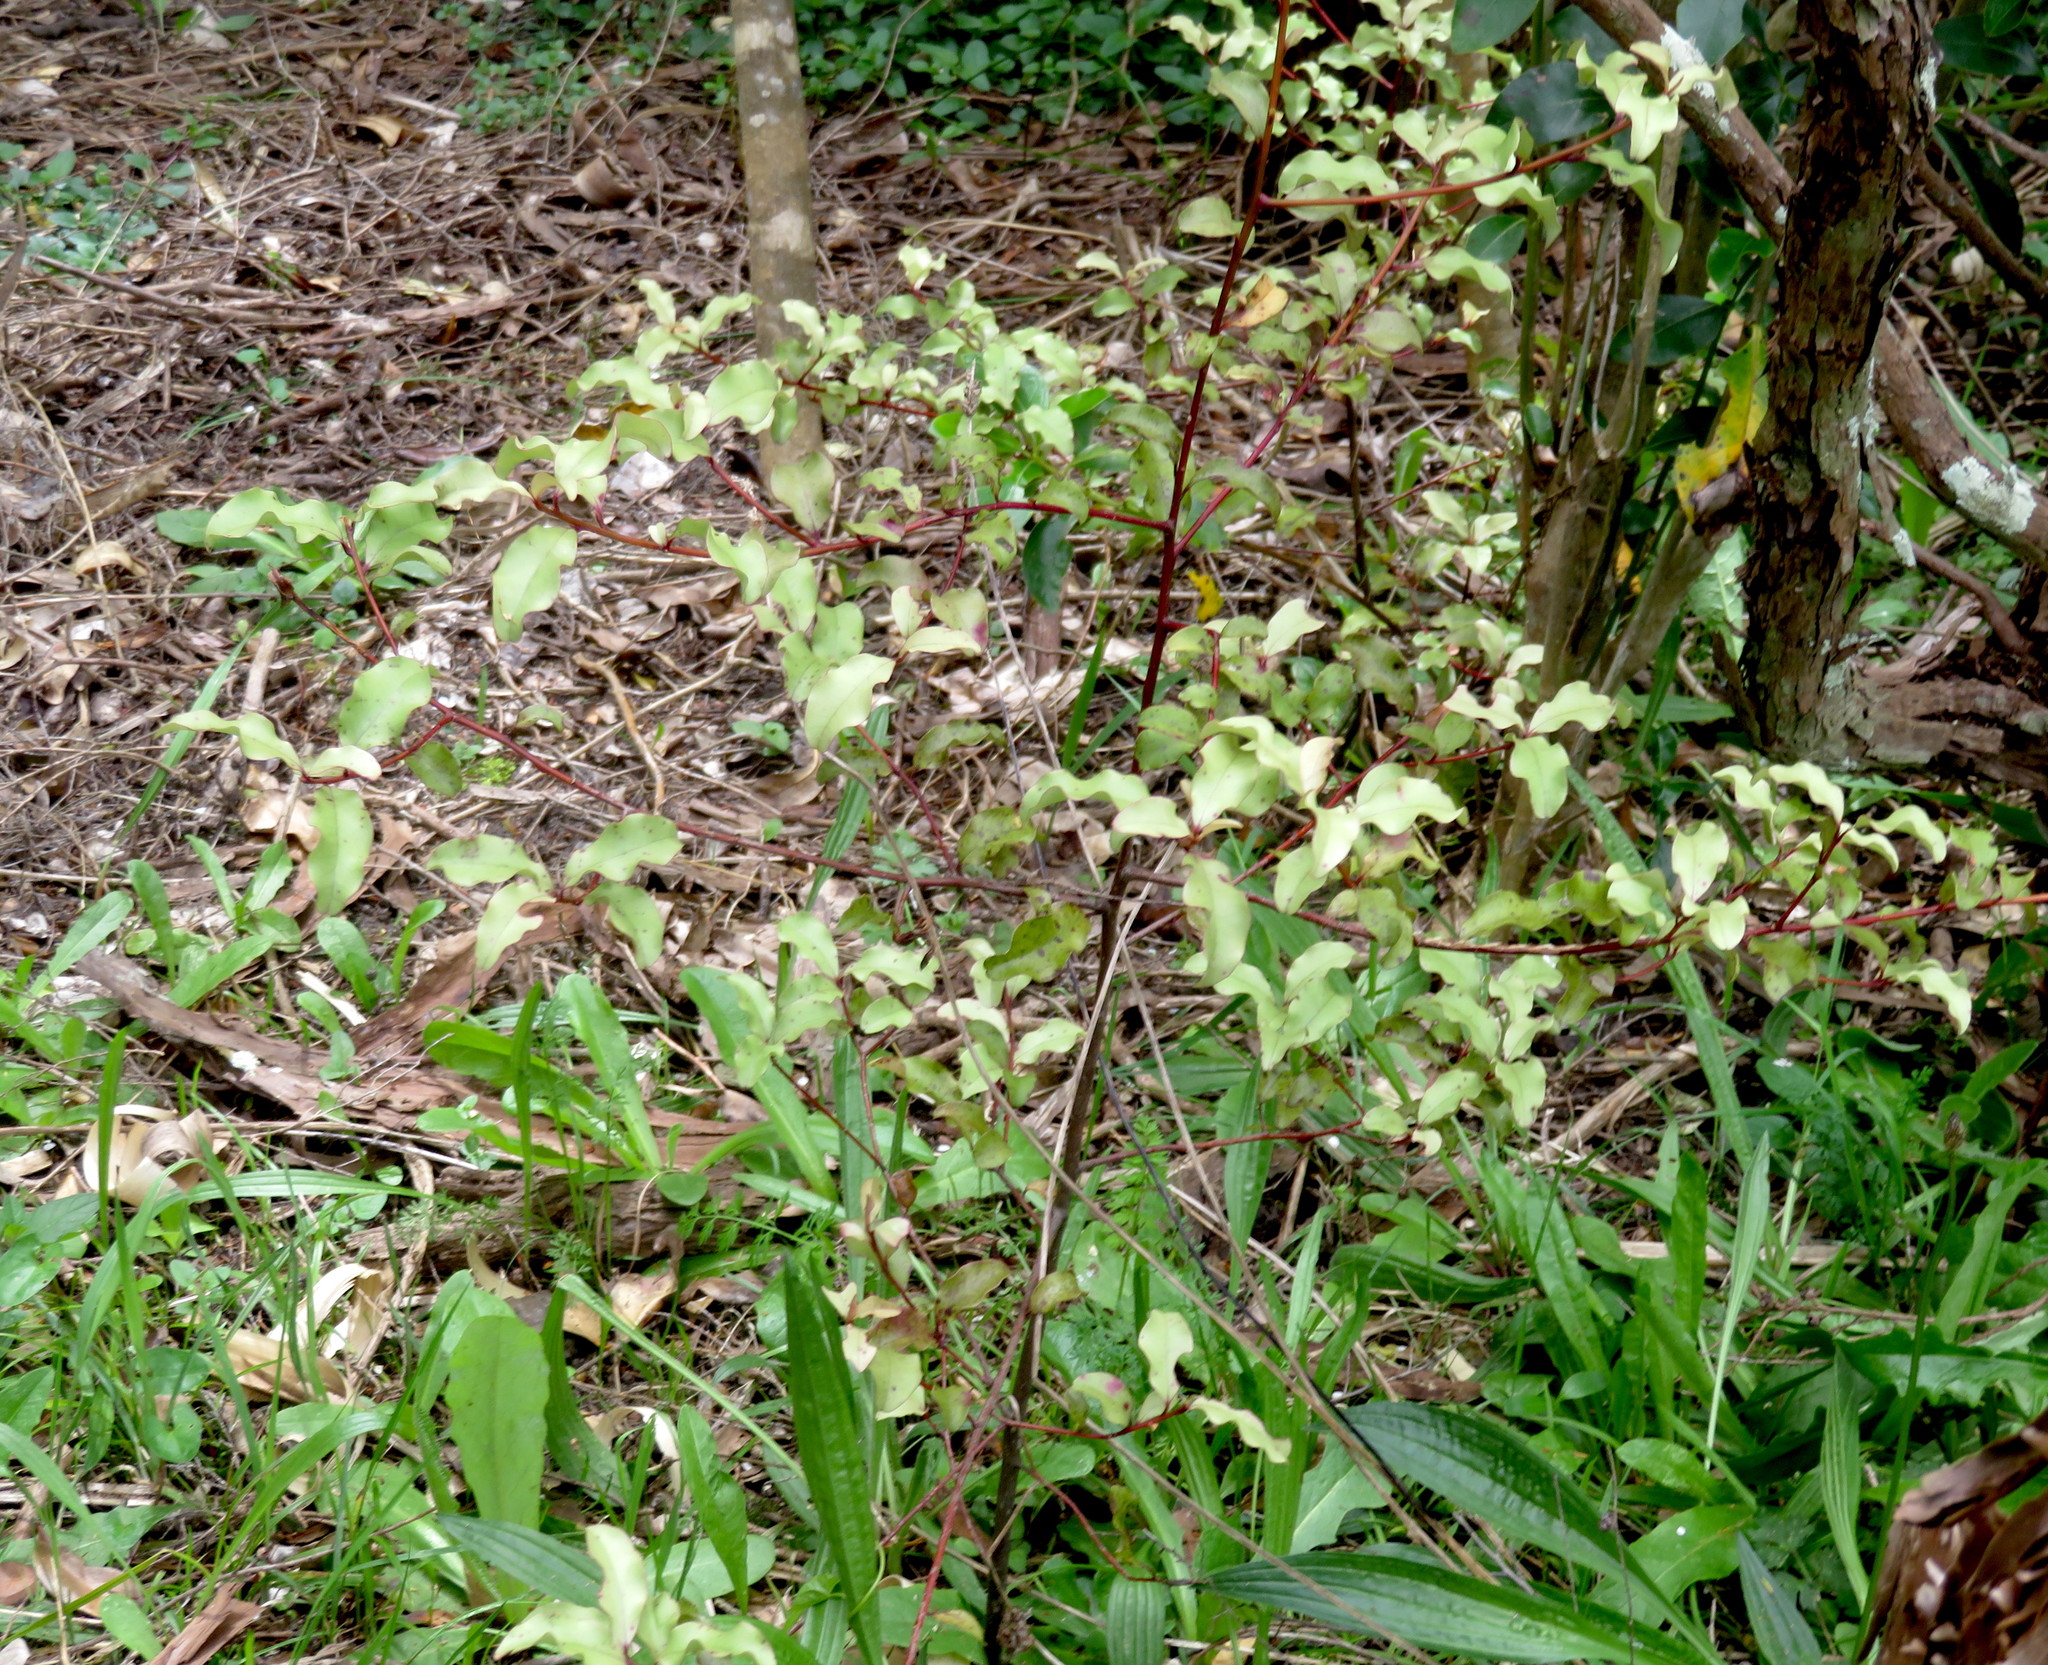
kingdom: Plantae
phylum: Tracheophyta
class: Magnoliopsida
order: Ericales
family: Primulaceae
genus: Myrsine
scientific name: Myrsine australis
